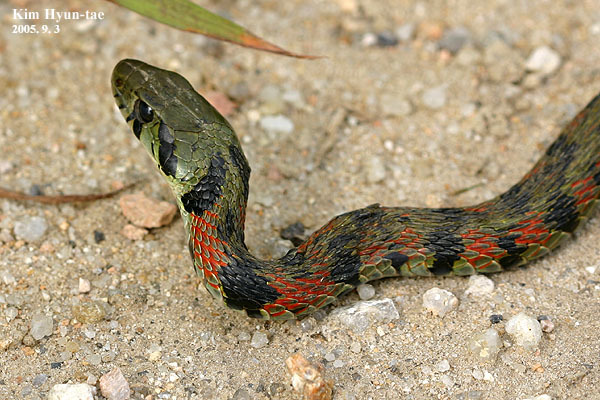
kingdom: Animalia
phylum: Chordata
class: Squamata
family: Colubridae
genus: Rhabdophis
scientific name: Rhabdophis tigrinus
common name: Tiger keelback
